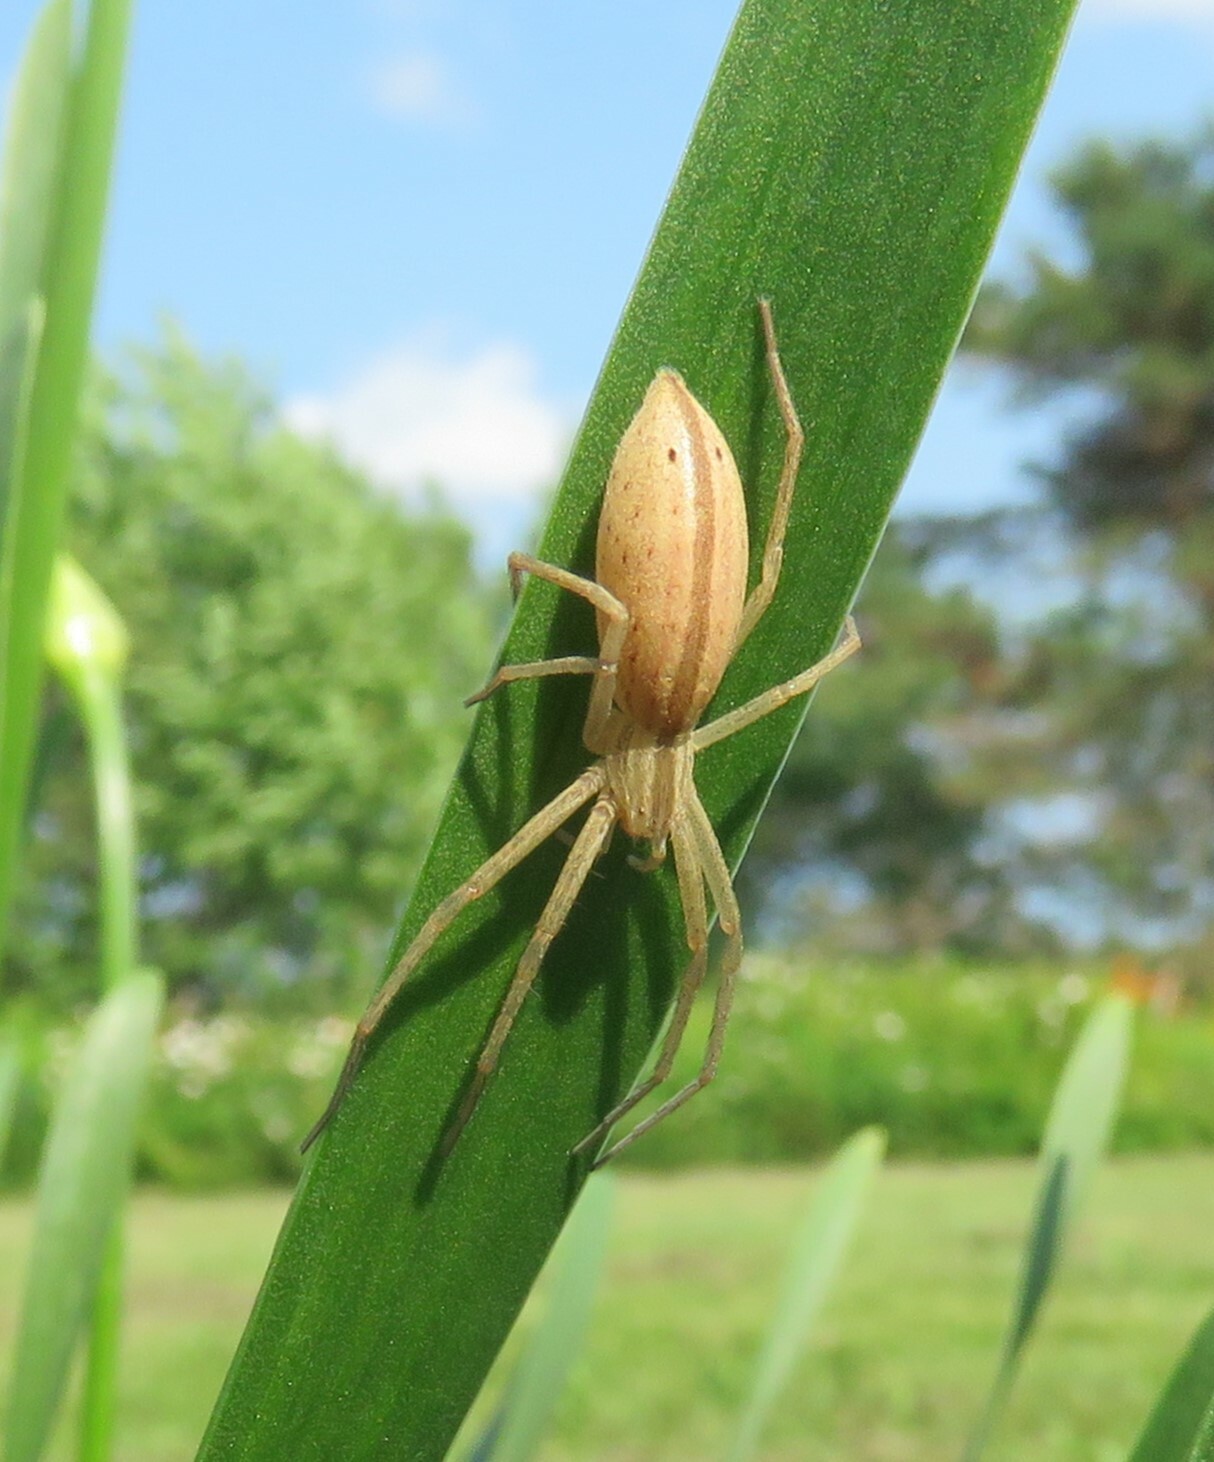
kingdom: Animalia
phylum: Arthropoda
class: Arachnida
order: Araneae
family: Philodromidae
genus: Tibellus
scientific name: Tibellus oblongus
